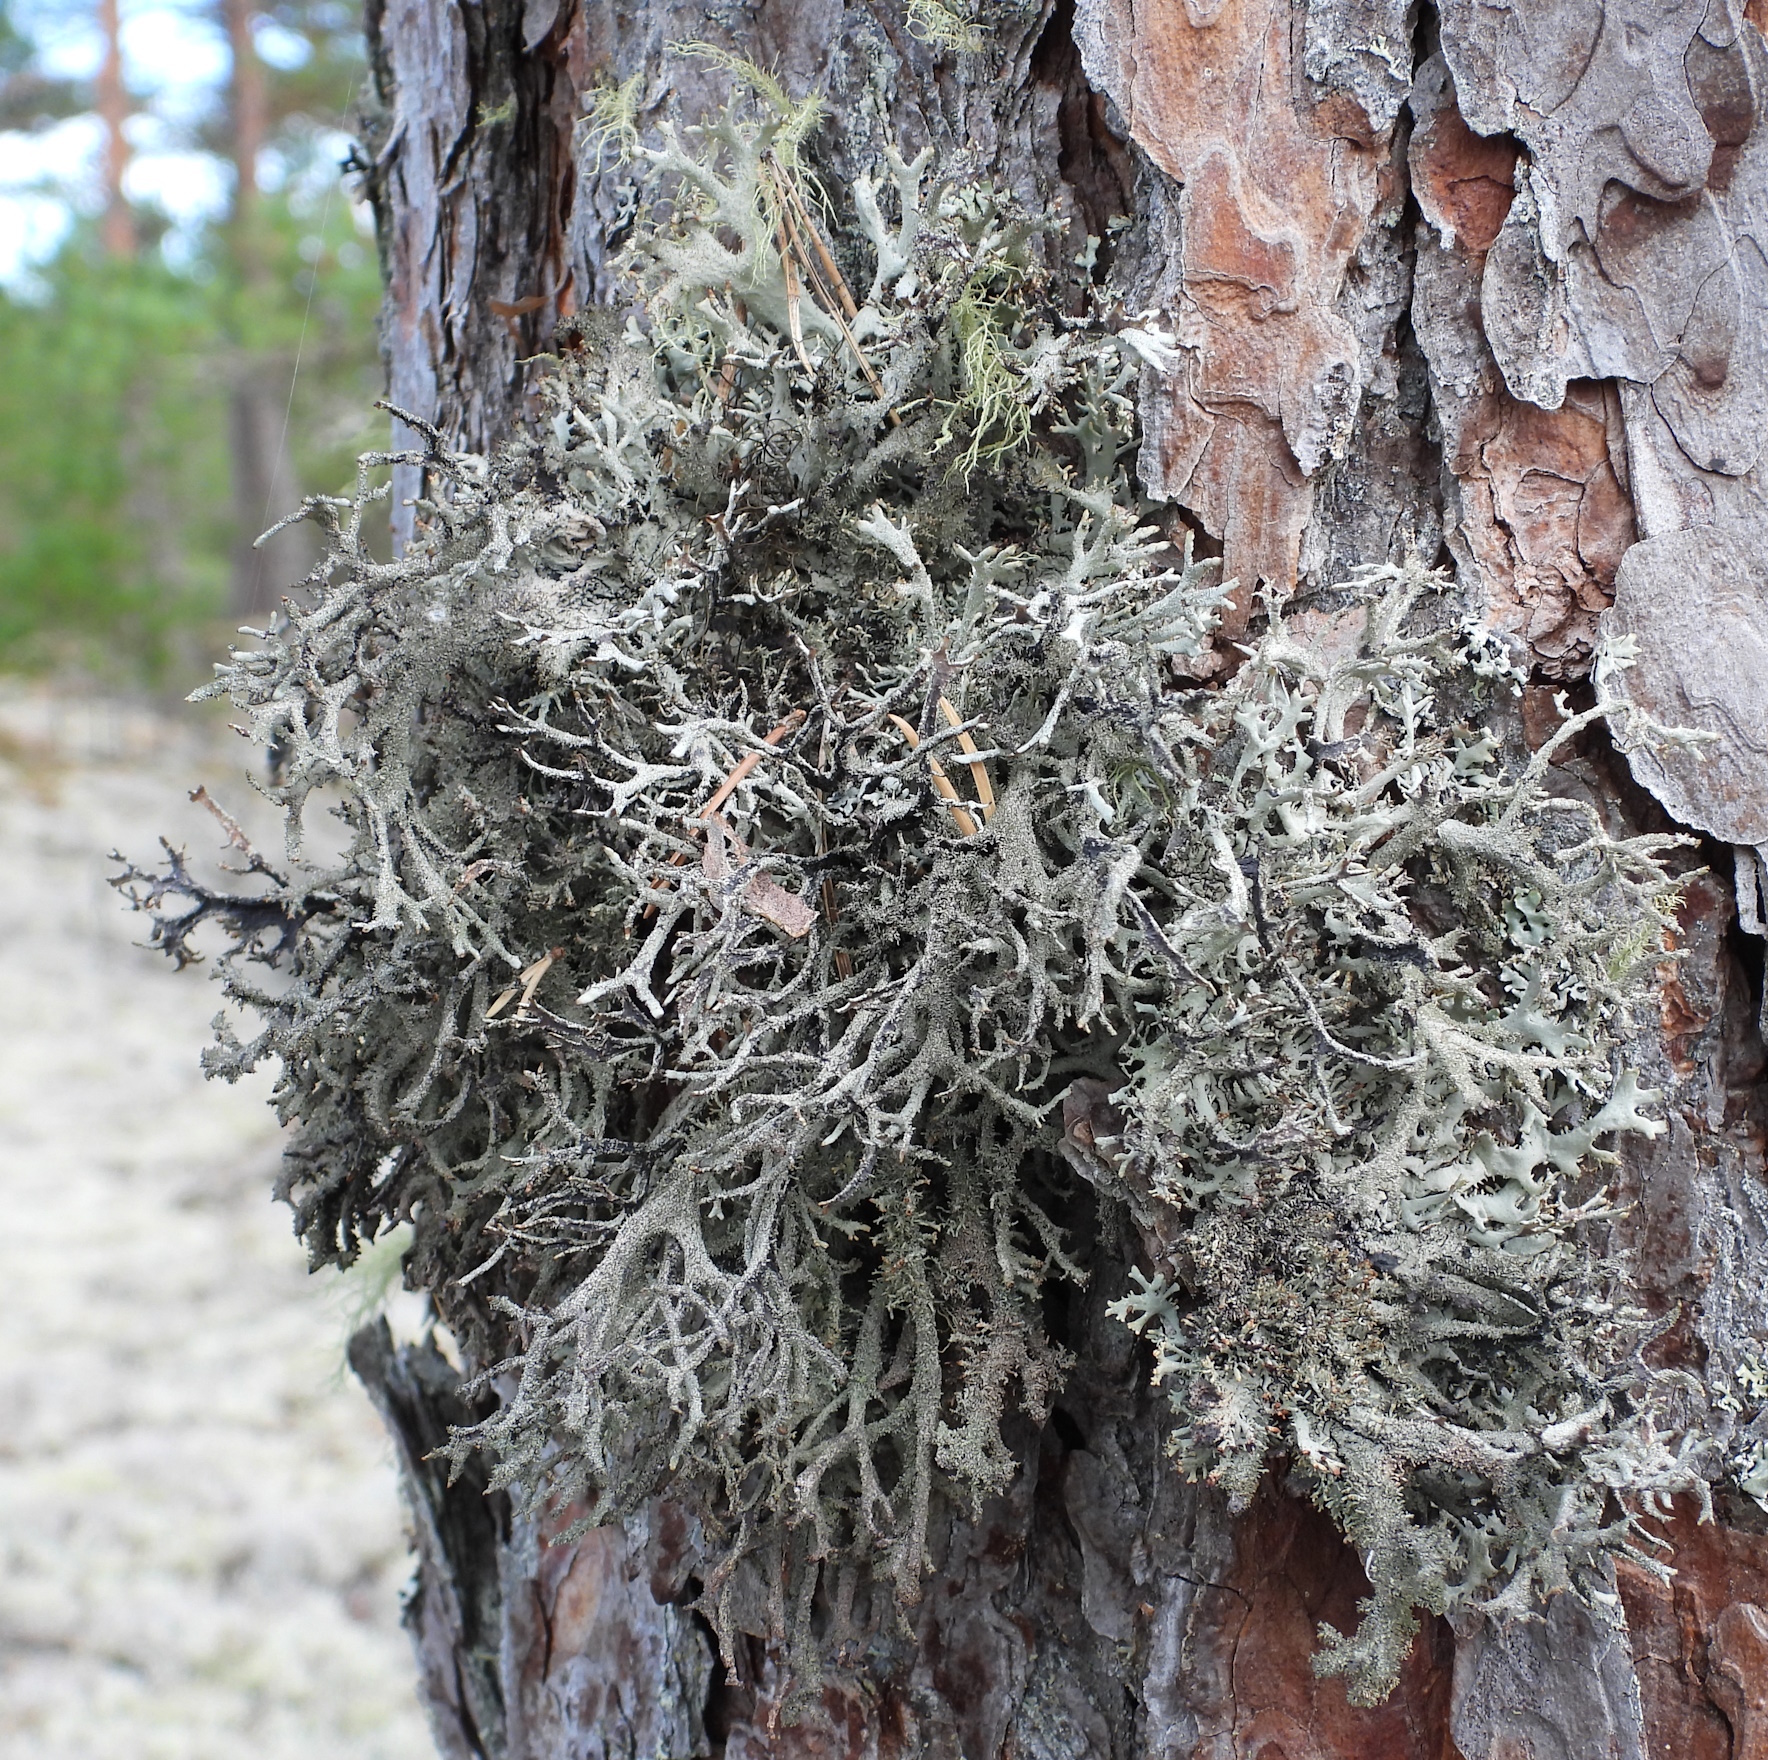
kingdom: Fungi
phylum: Ascomycota
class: Lecanoromycetes
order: Lecanorales
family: Parmeliaceae
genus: Pseudevernia
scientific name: Pseudevernia furfuracea
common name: Tree moss
